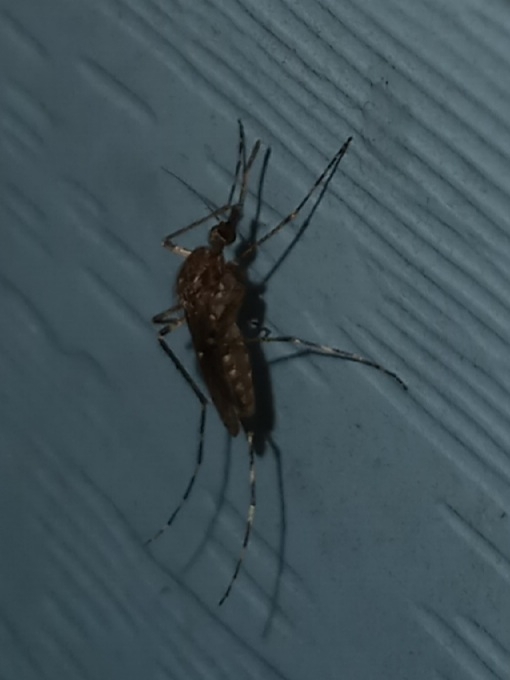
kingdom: Animalia
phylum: Arthropoda
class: Insecta
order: Diptera
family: Culicidae
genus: Coquillettidia
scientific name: Coquillettidia perturbans
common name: Cattail mosquito
